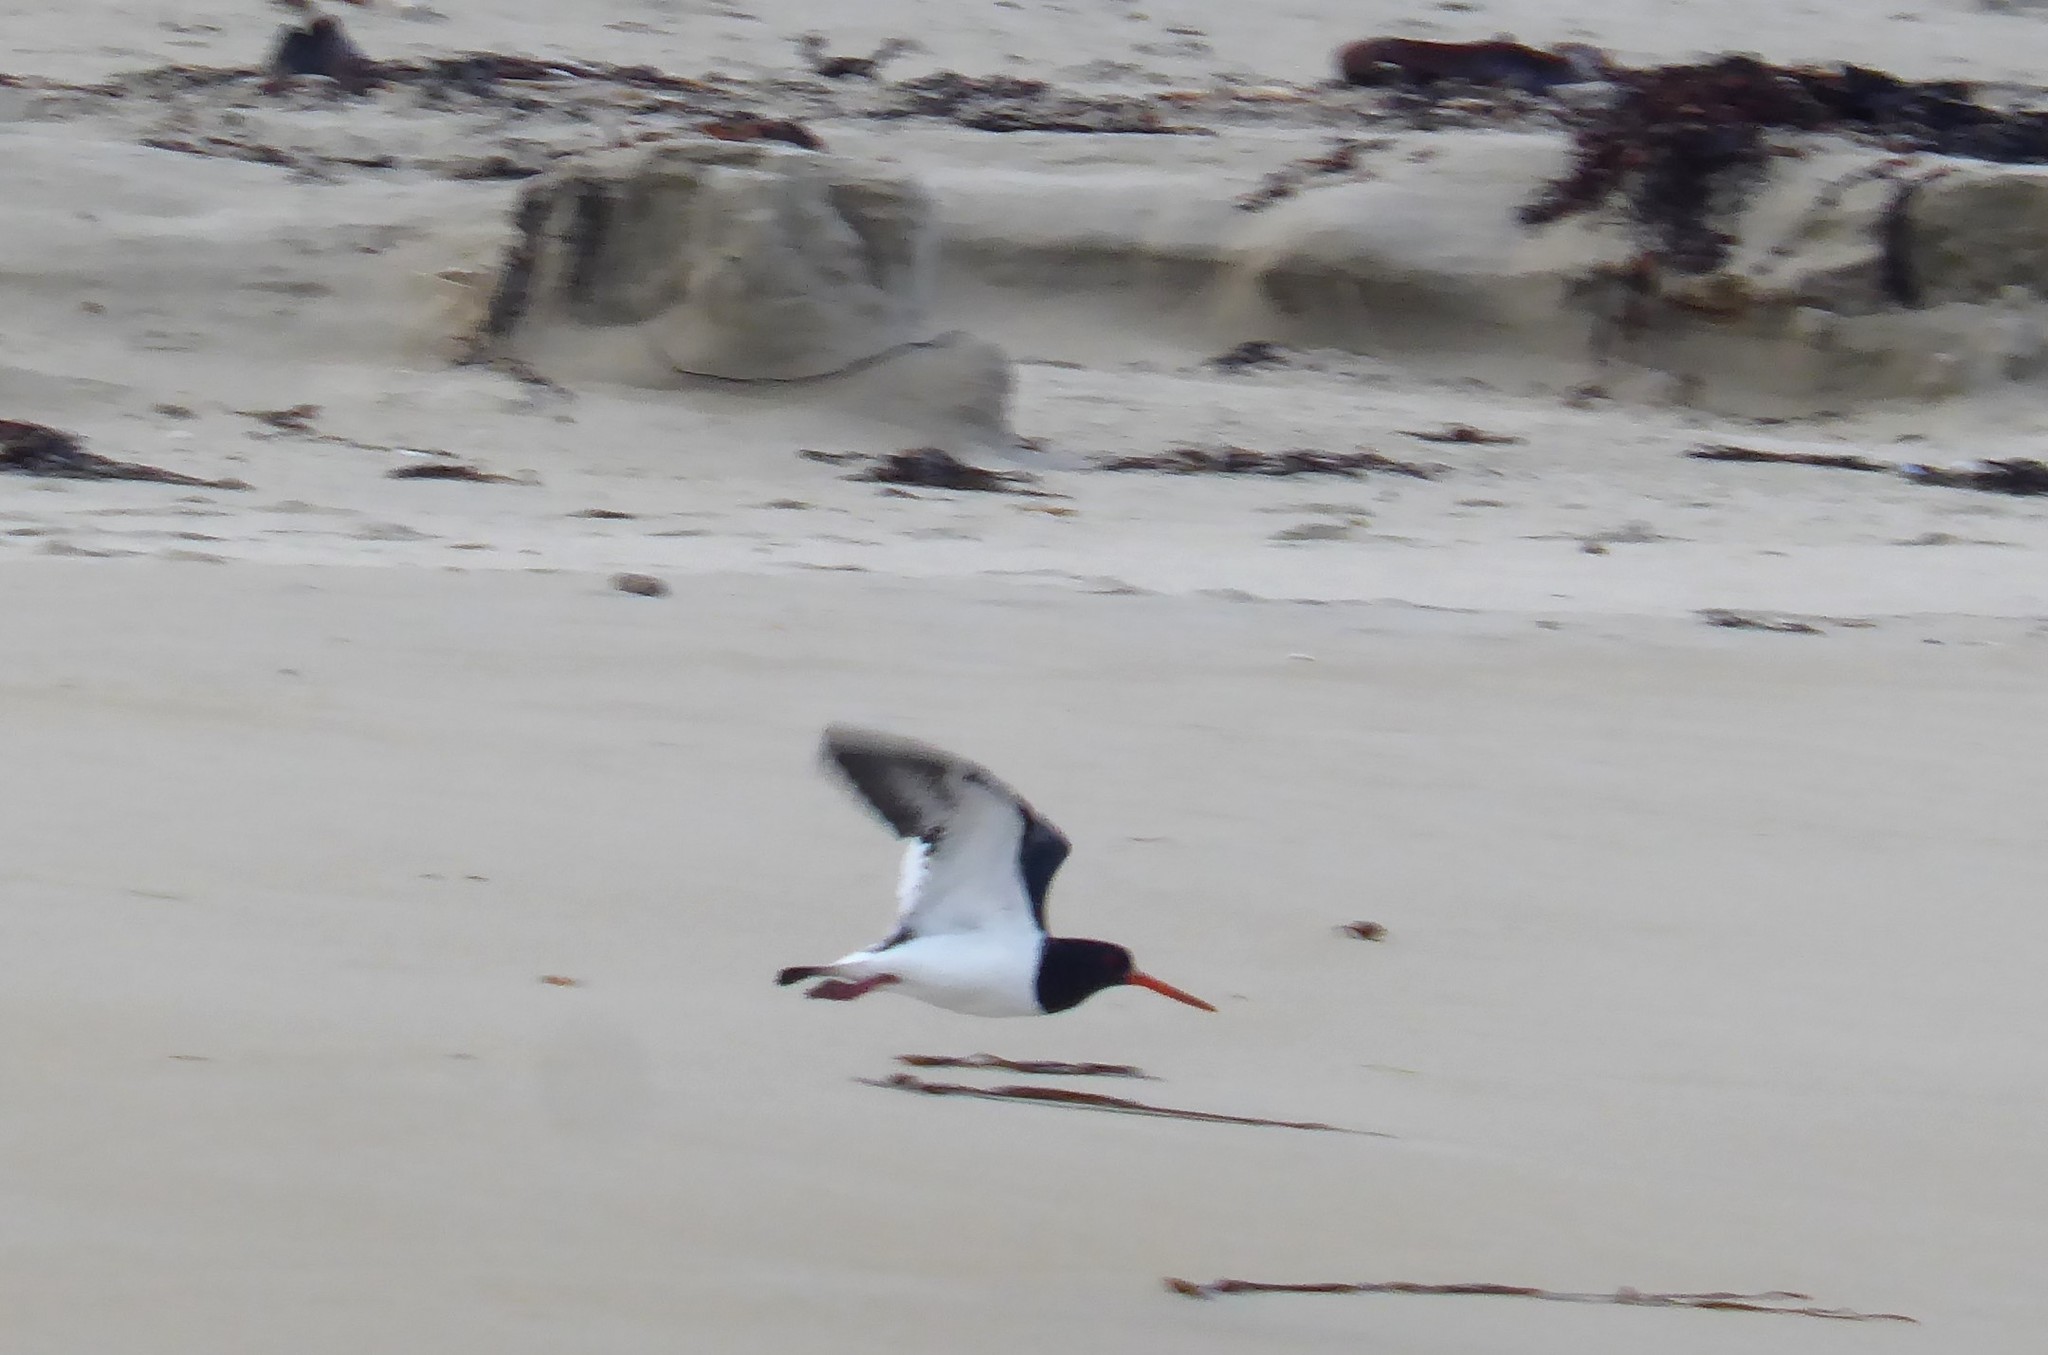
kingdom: Animalia
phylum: Chordata
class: Aves
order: Charadriiformes
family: Haematopodidae
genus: Haematopus
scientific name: Haematopus finschi
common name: South island oystercatcher
